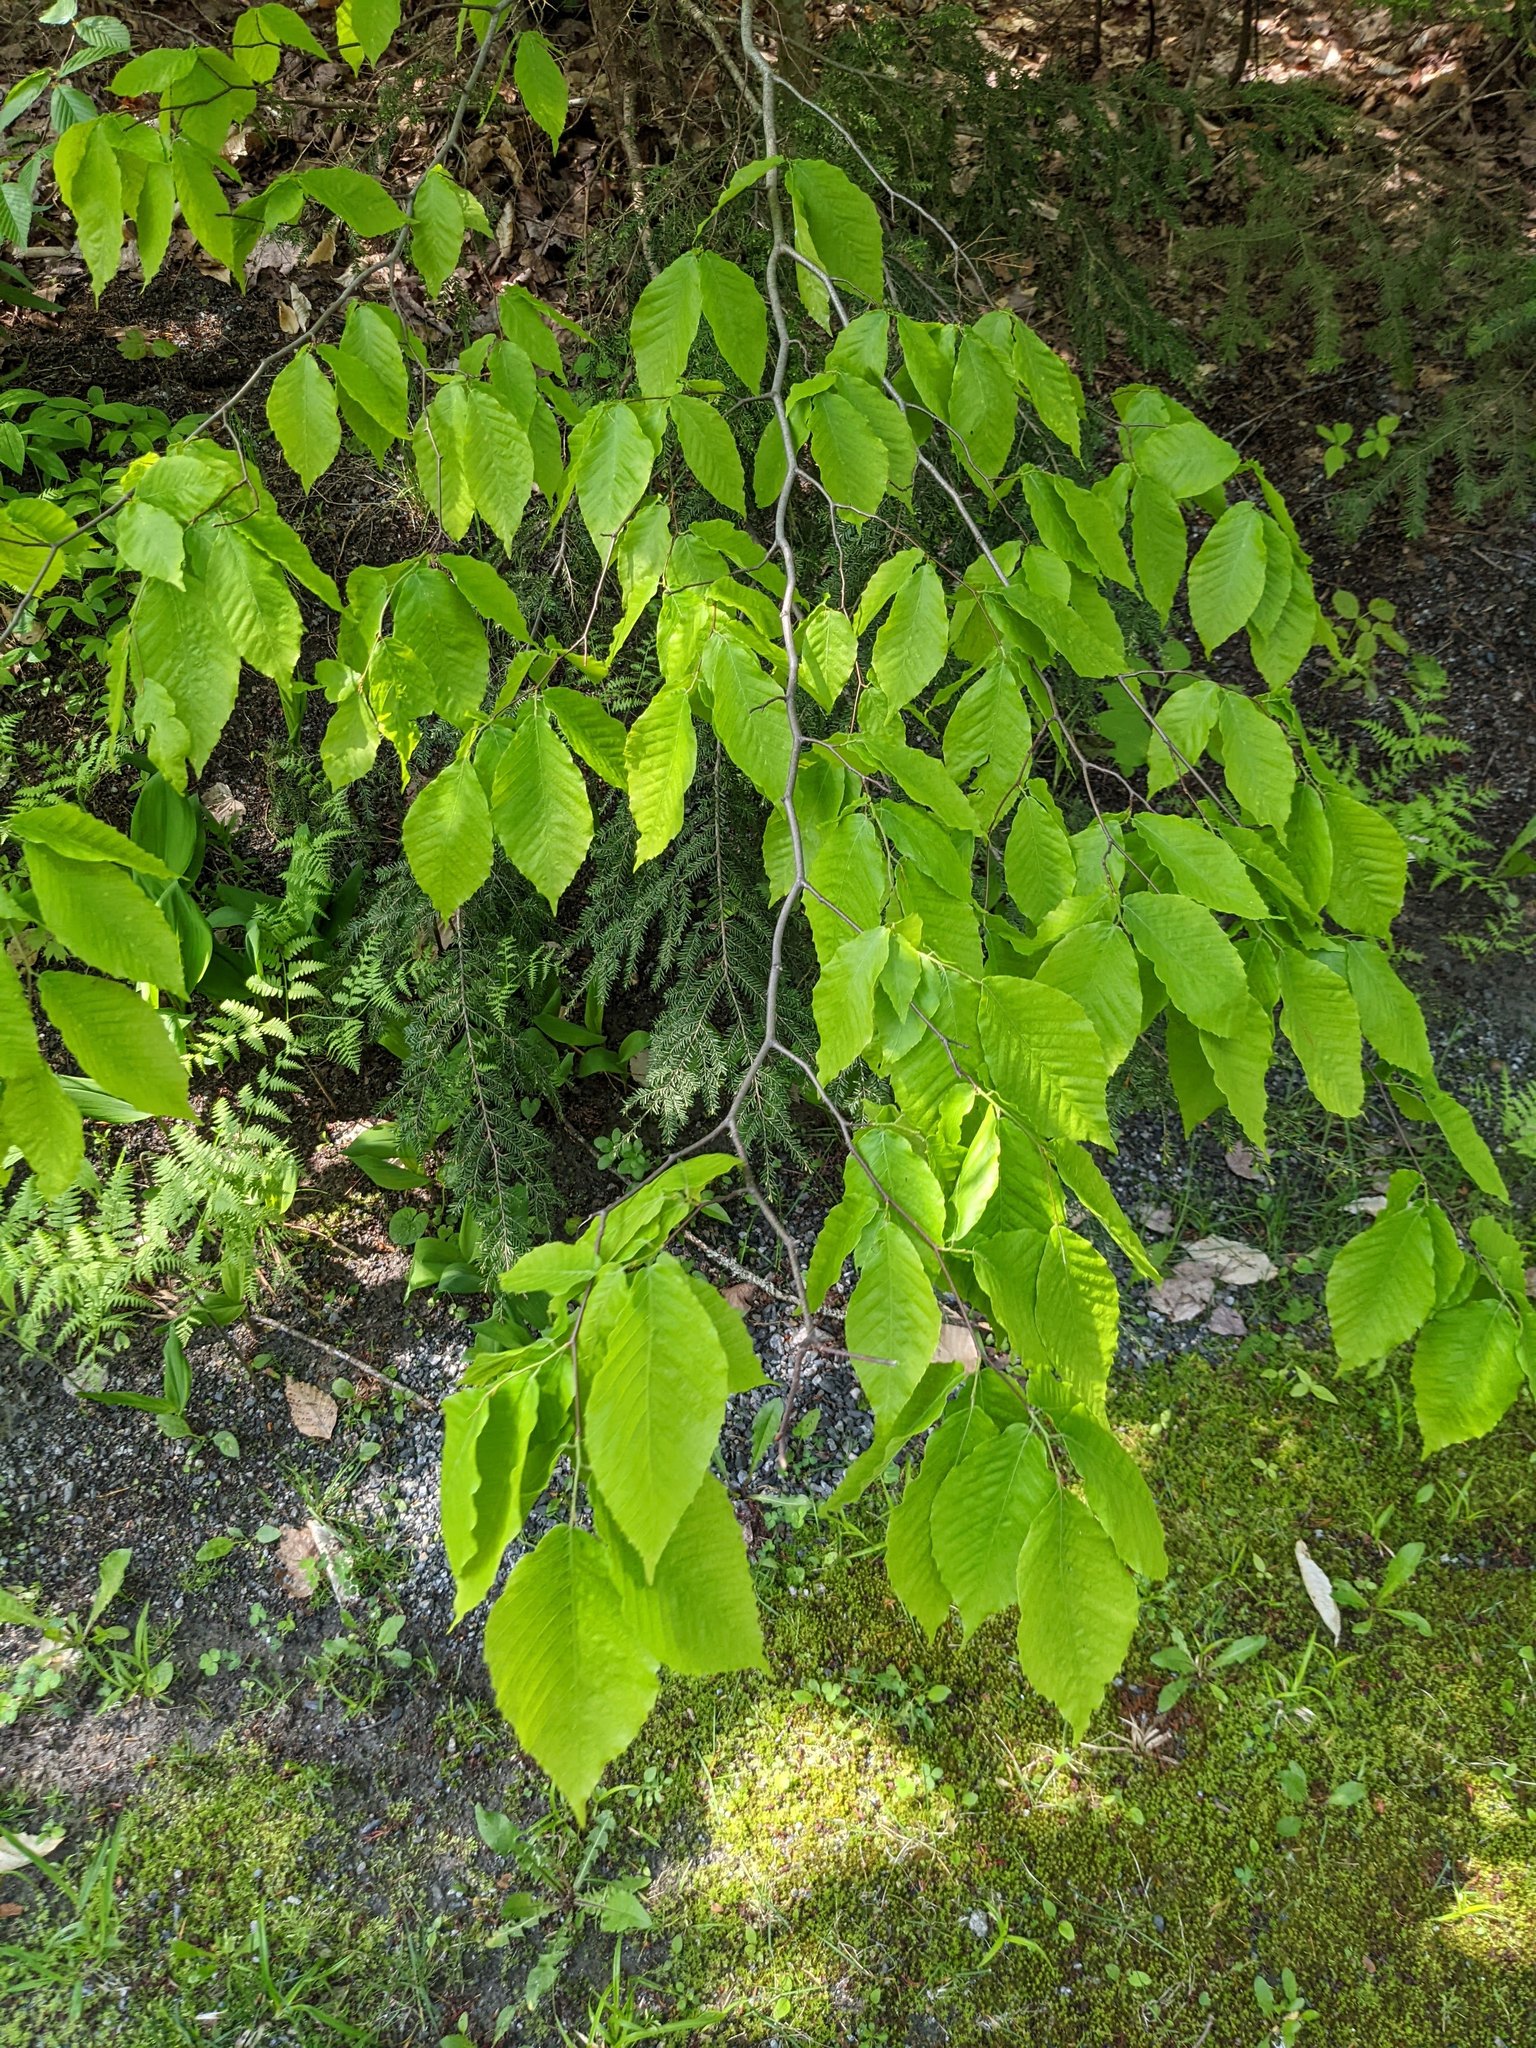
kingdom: Plantae
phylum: Tracheophyta
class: Magnoliopsida
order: Fagales
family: Fagaceae
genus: Fagus
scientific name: Fagus grandifolia
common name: American beech
